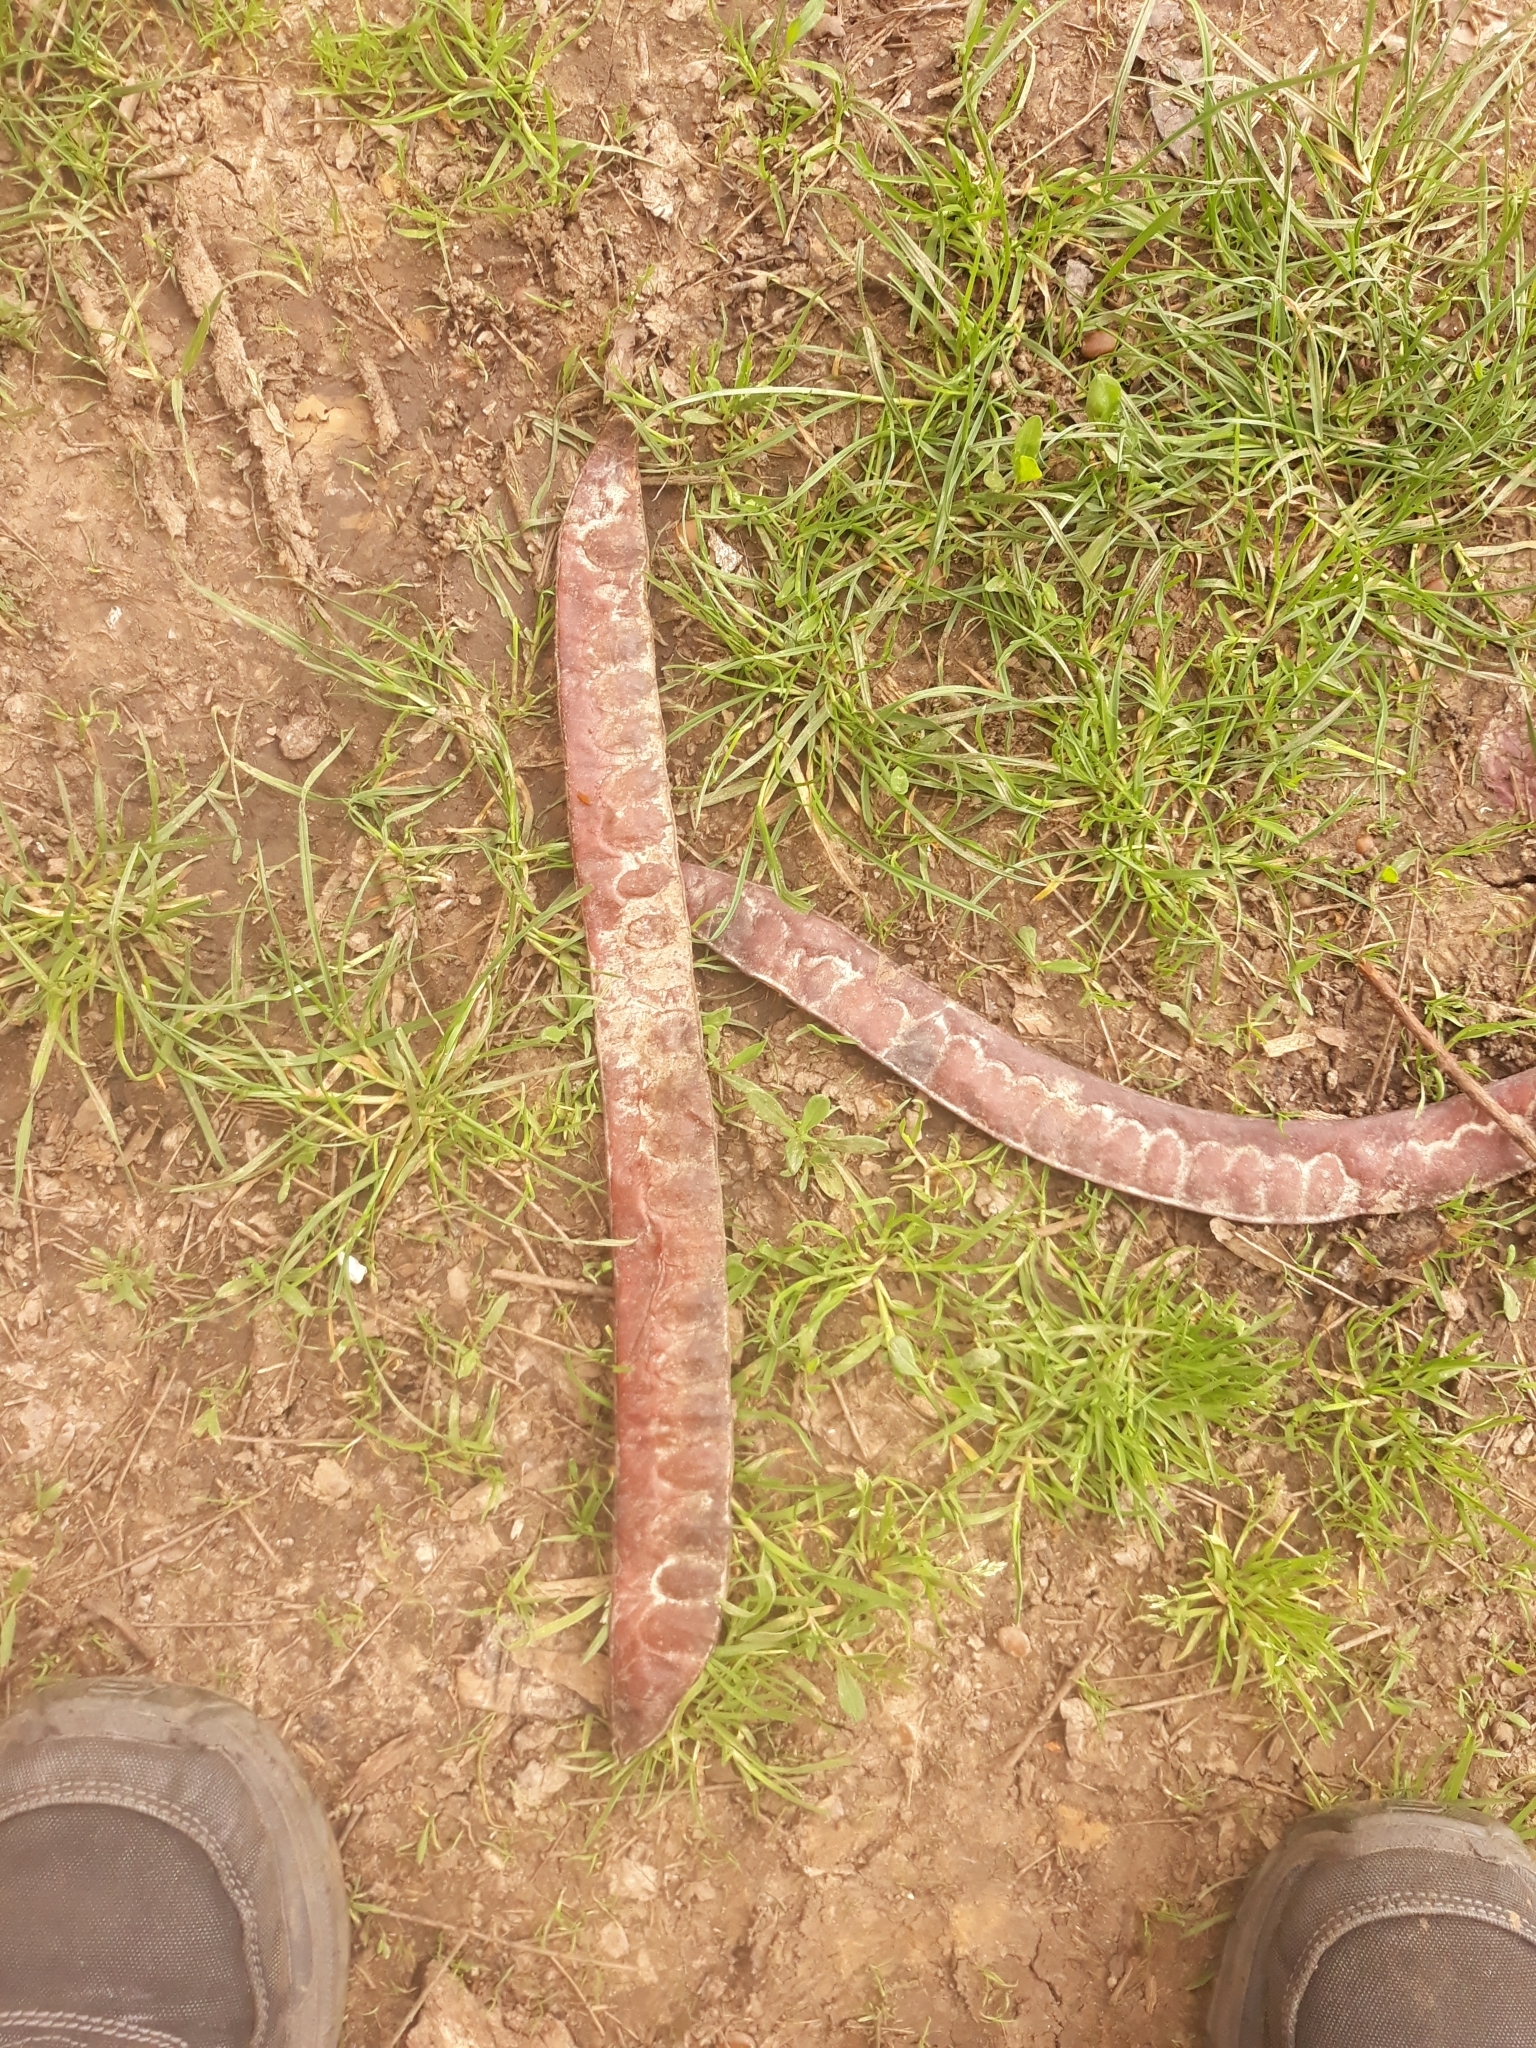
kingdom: Plantae
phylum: Tracheophyta
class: Magnoliopsida
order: Fabales
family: Fabaceae
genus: Gleditsia
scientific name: Gleditsia triacanthos
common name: Common honeylocust
